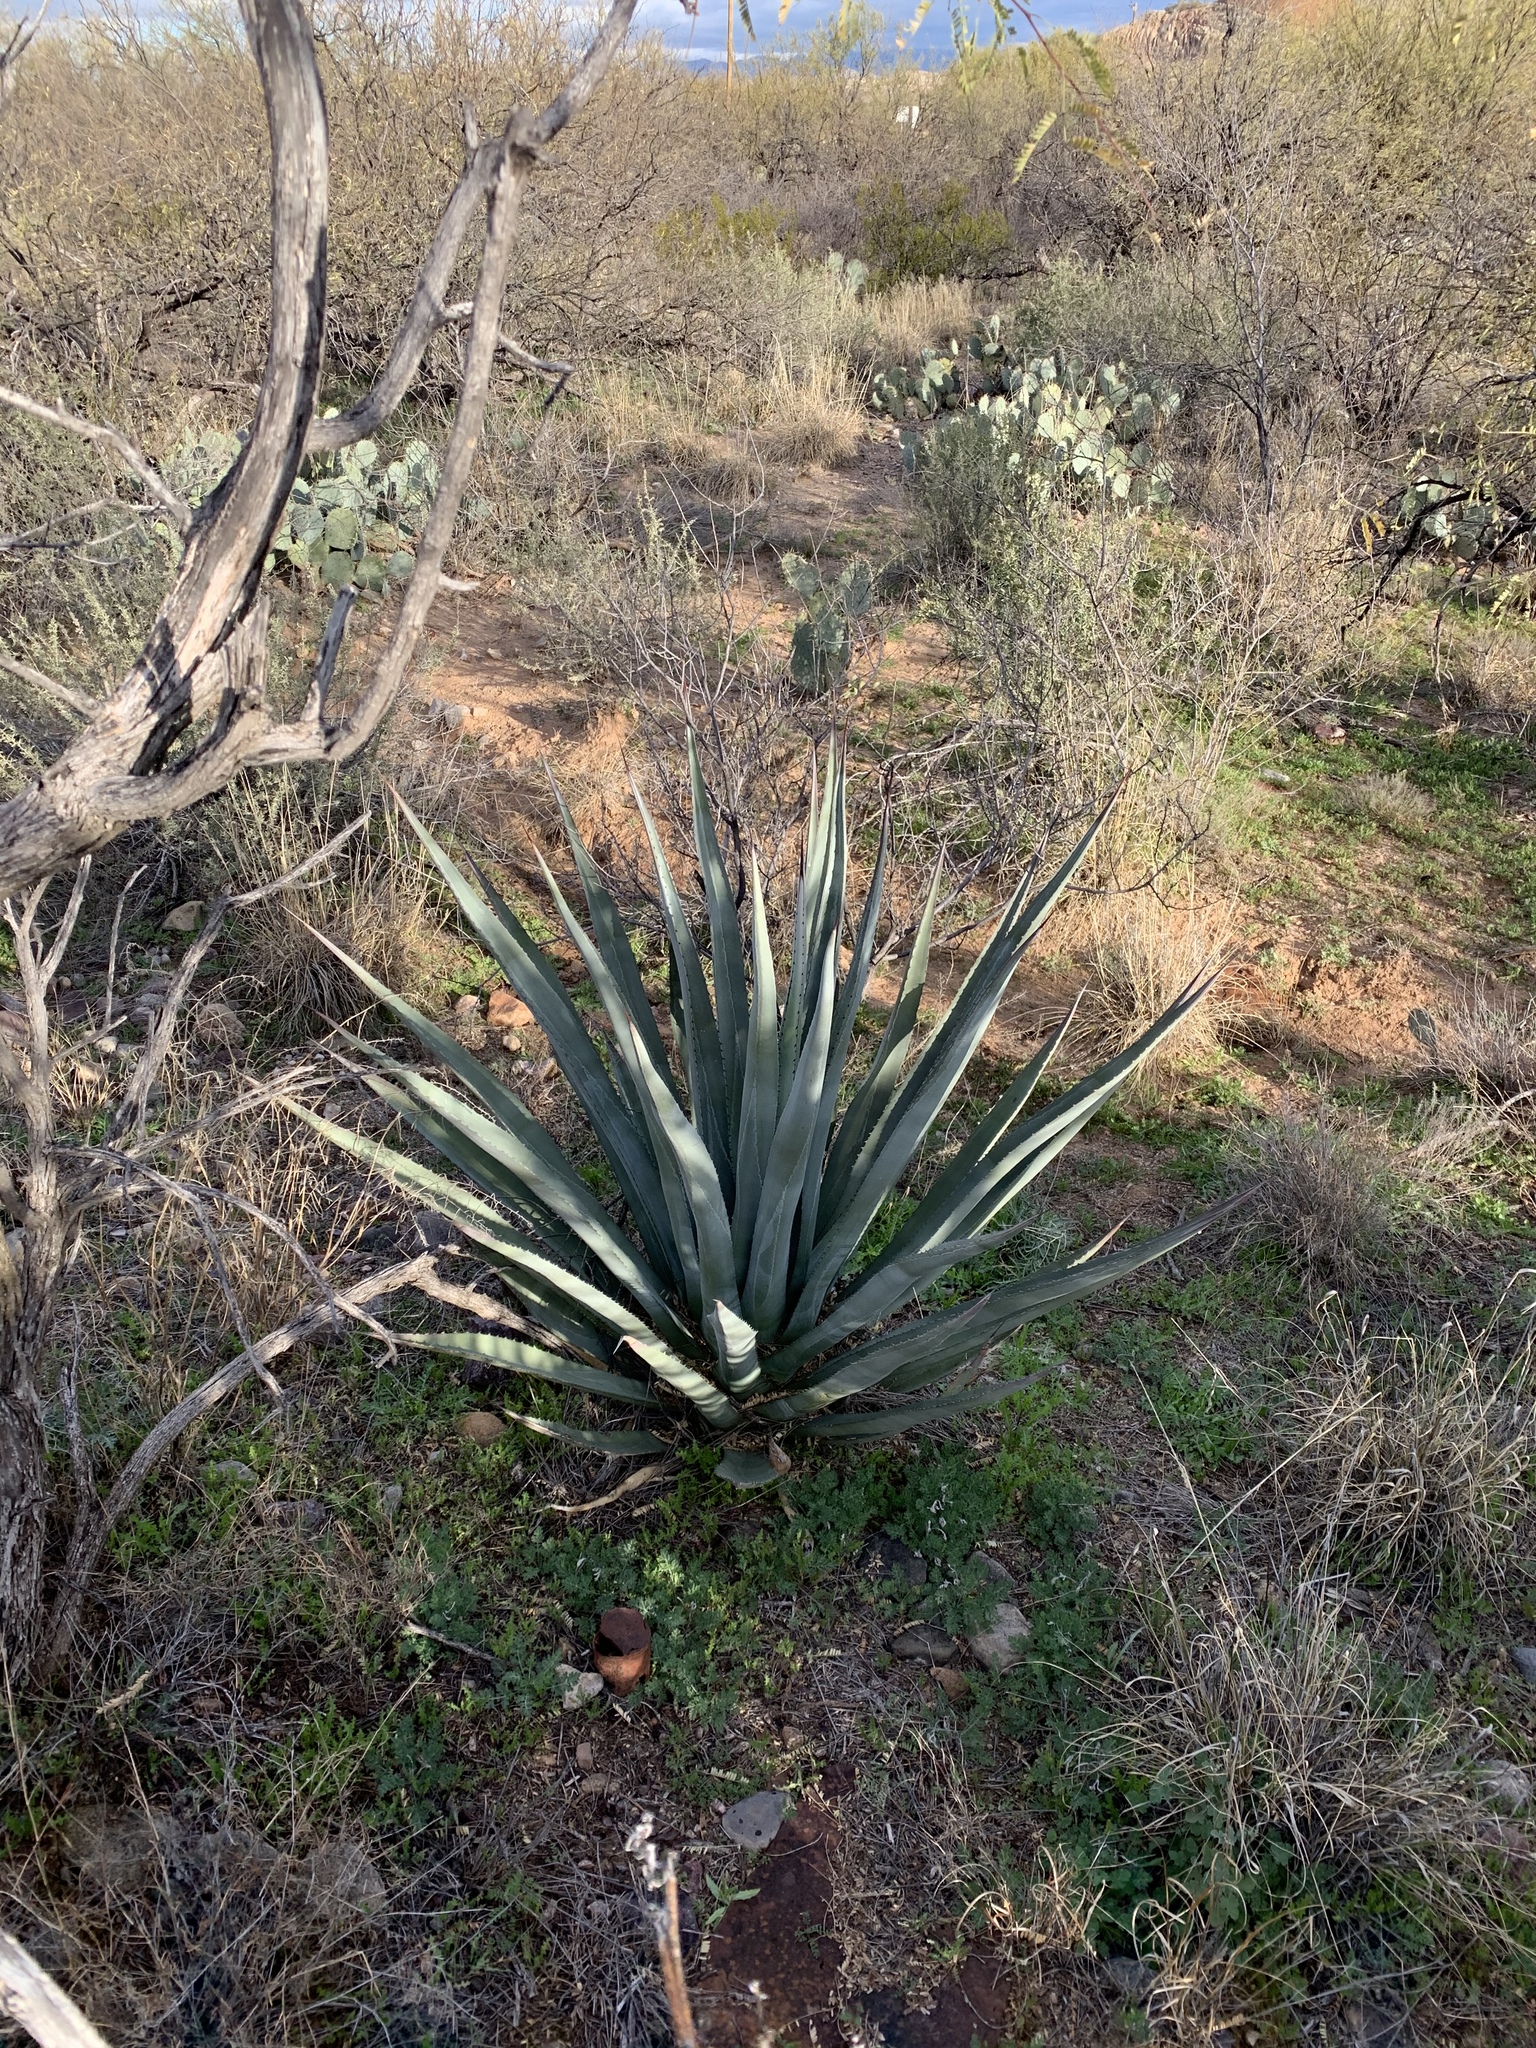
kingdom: Plantae
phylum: Tracheophyta
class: Liliopsida
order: Asparagales
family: Asparagaceae
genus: Agave
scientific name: Agave palmeri
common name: Palmer agave
